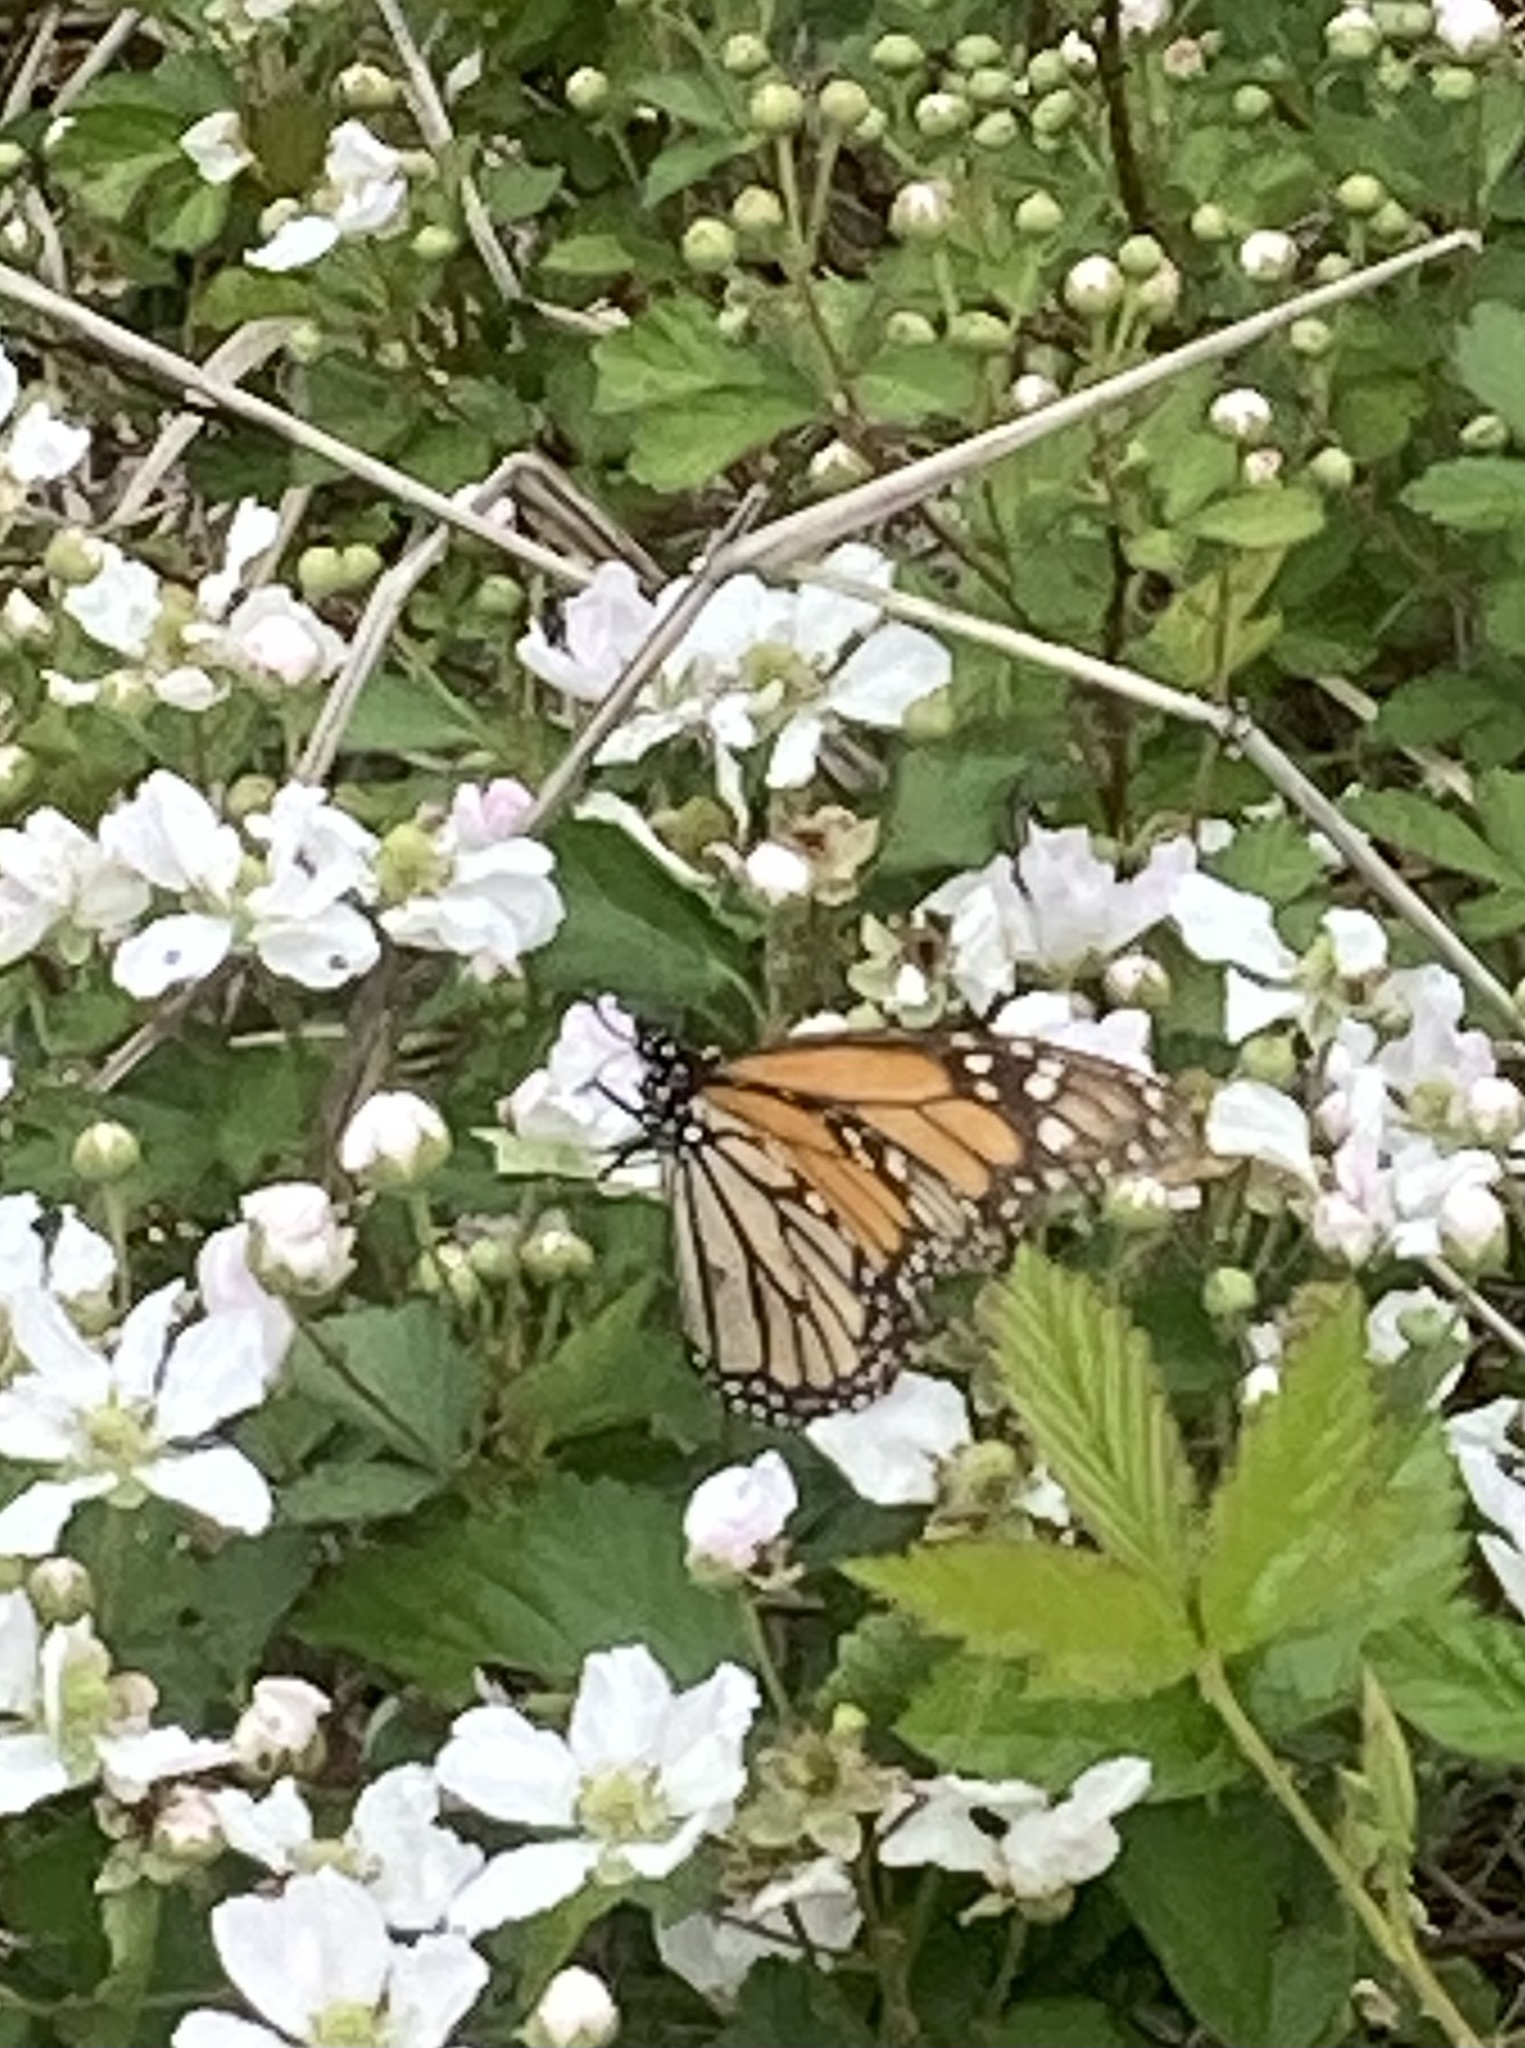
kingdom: Animalia
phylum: Arthropoda
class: Insecta
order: Lepidoptera
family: Nymphalidae
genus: Danaus
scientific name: Danaus plexippus
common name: Monarch
